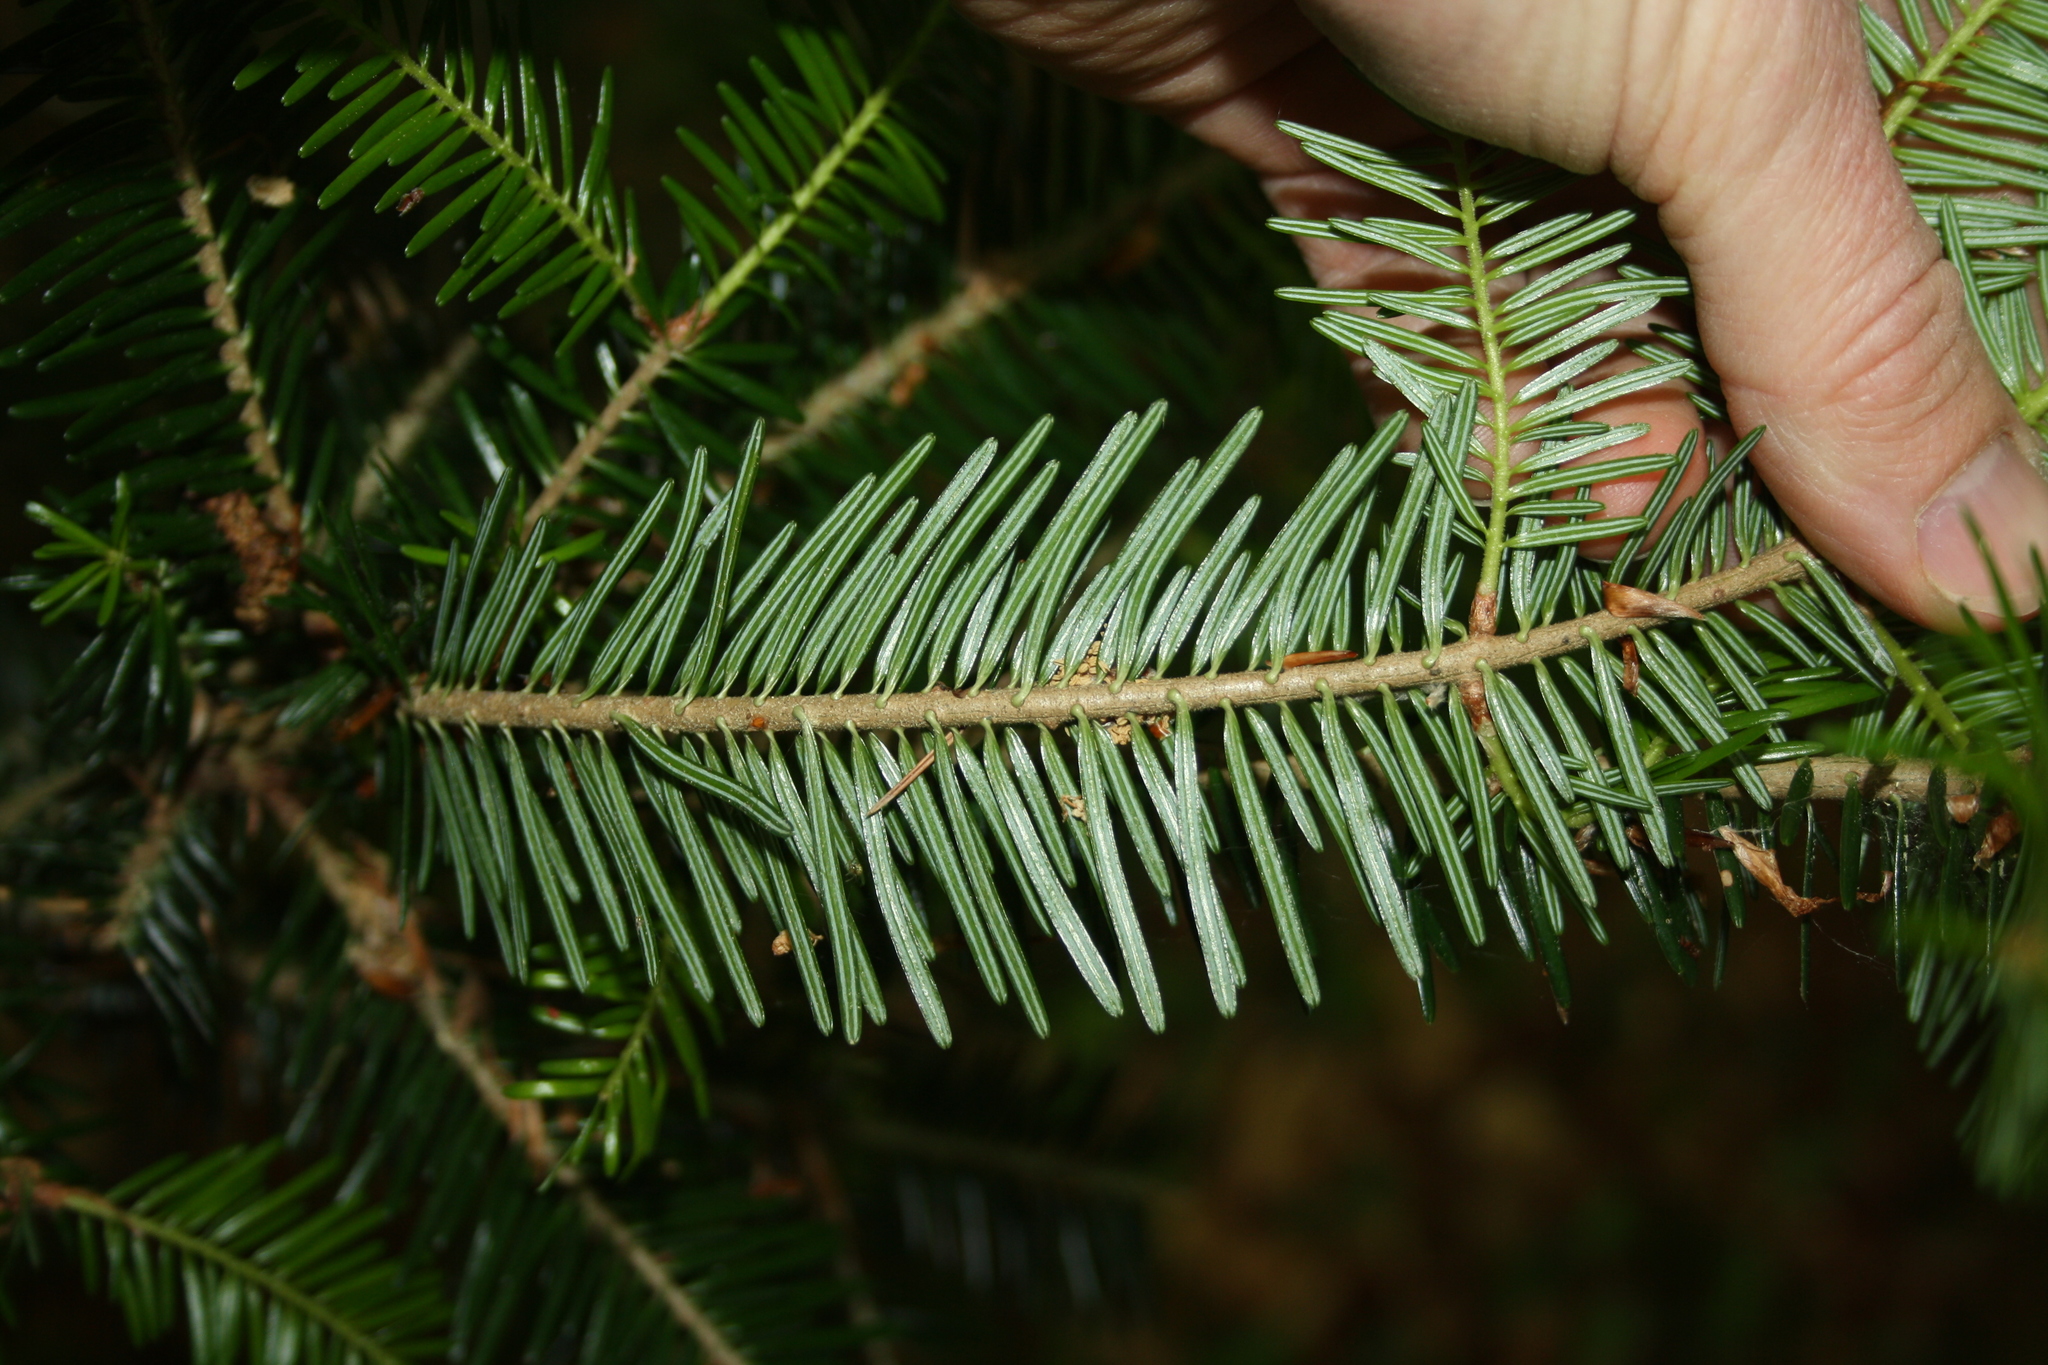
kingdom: Plantae
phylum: Tracheophyta
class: Pinopsida
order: Pinales
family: Pinaceae
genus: Abies
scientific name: Abies alba
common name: Silver fir
